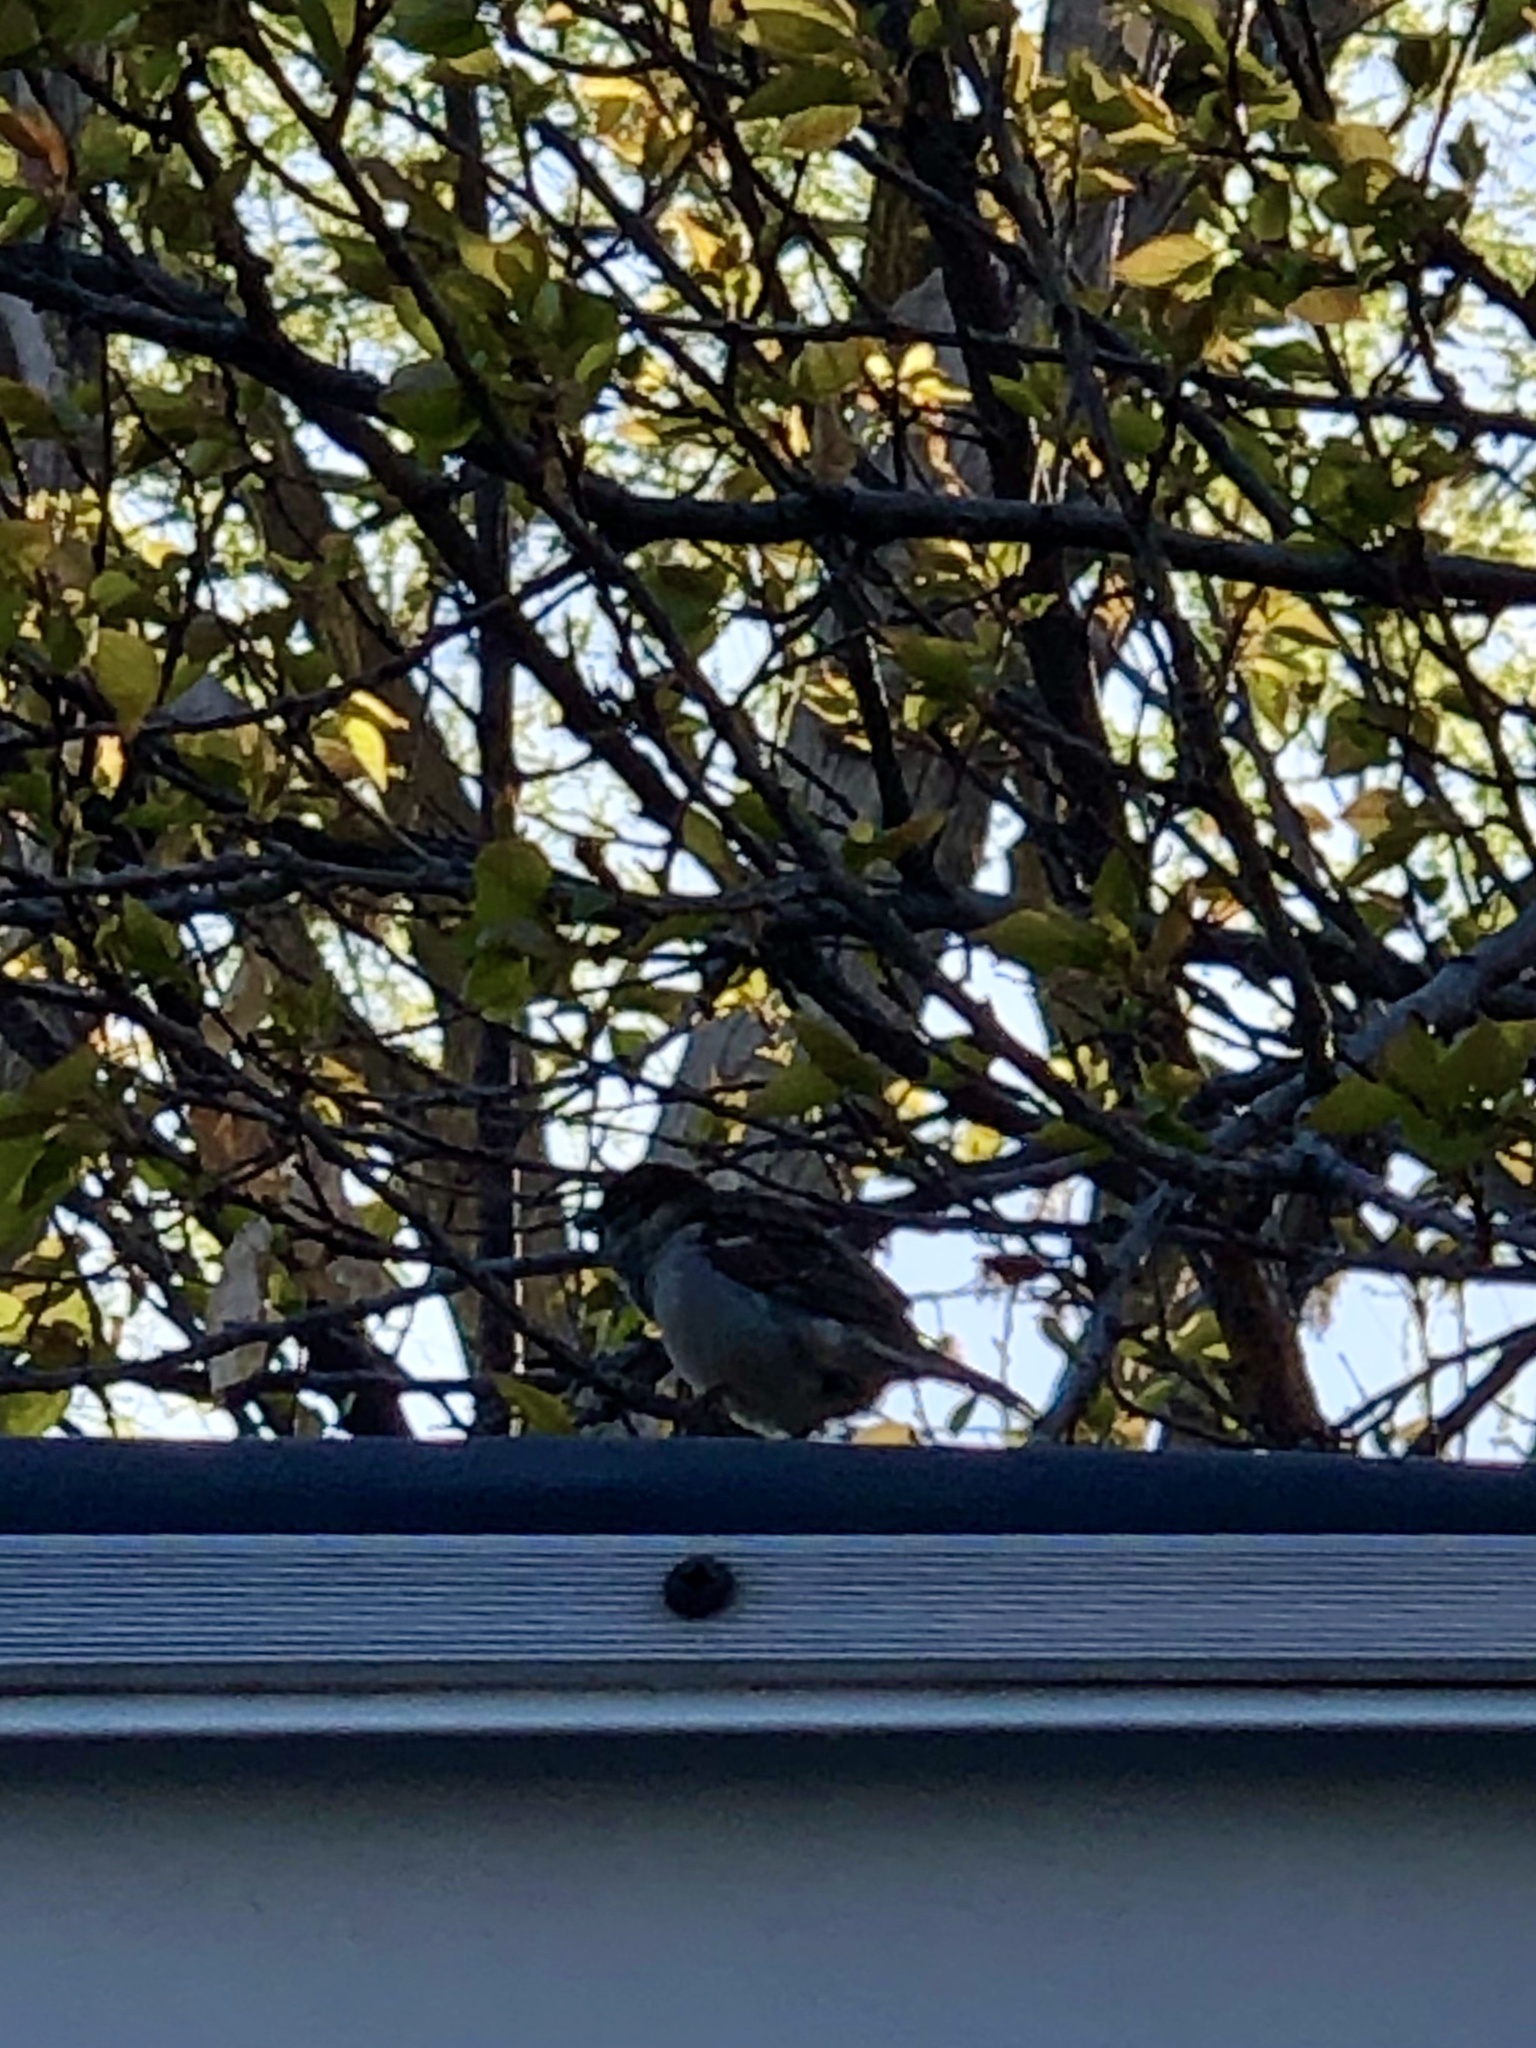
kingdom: Animalia
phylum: Chordata
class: Aves
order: Passeriformes
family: Passeridae
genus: Passer
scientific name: Passer domesticus
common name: House sparrow
